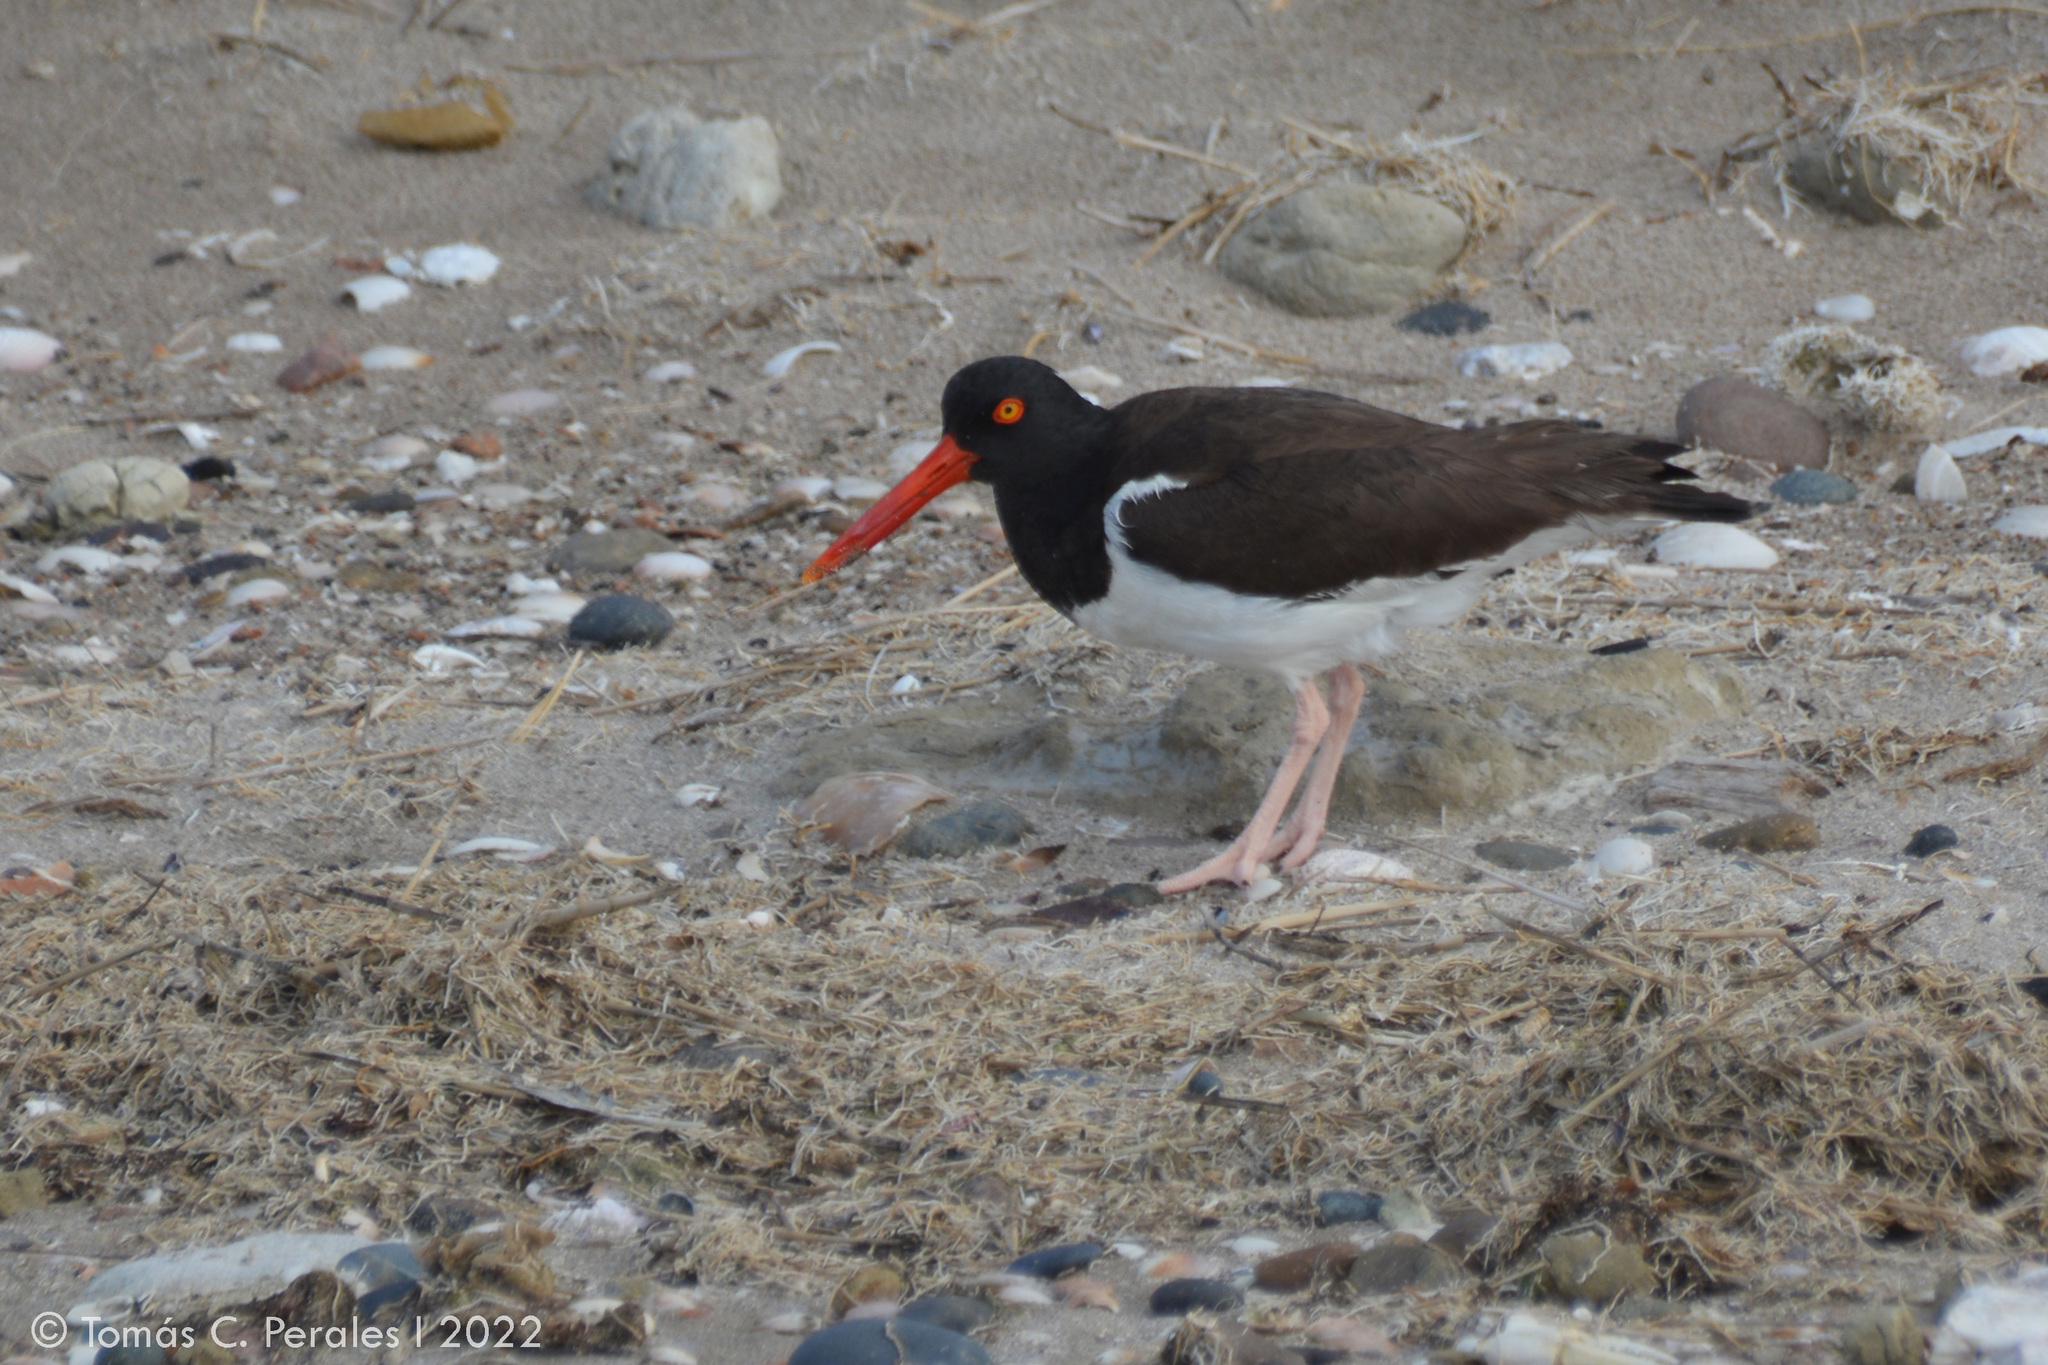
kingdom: Animalia
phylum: Chordata
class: Aves
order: Charadriiformes
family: Haematopodidae
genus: Haematopus
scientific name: Haematopus palliatus
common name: American oystercatcher
